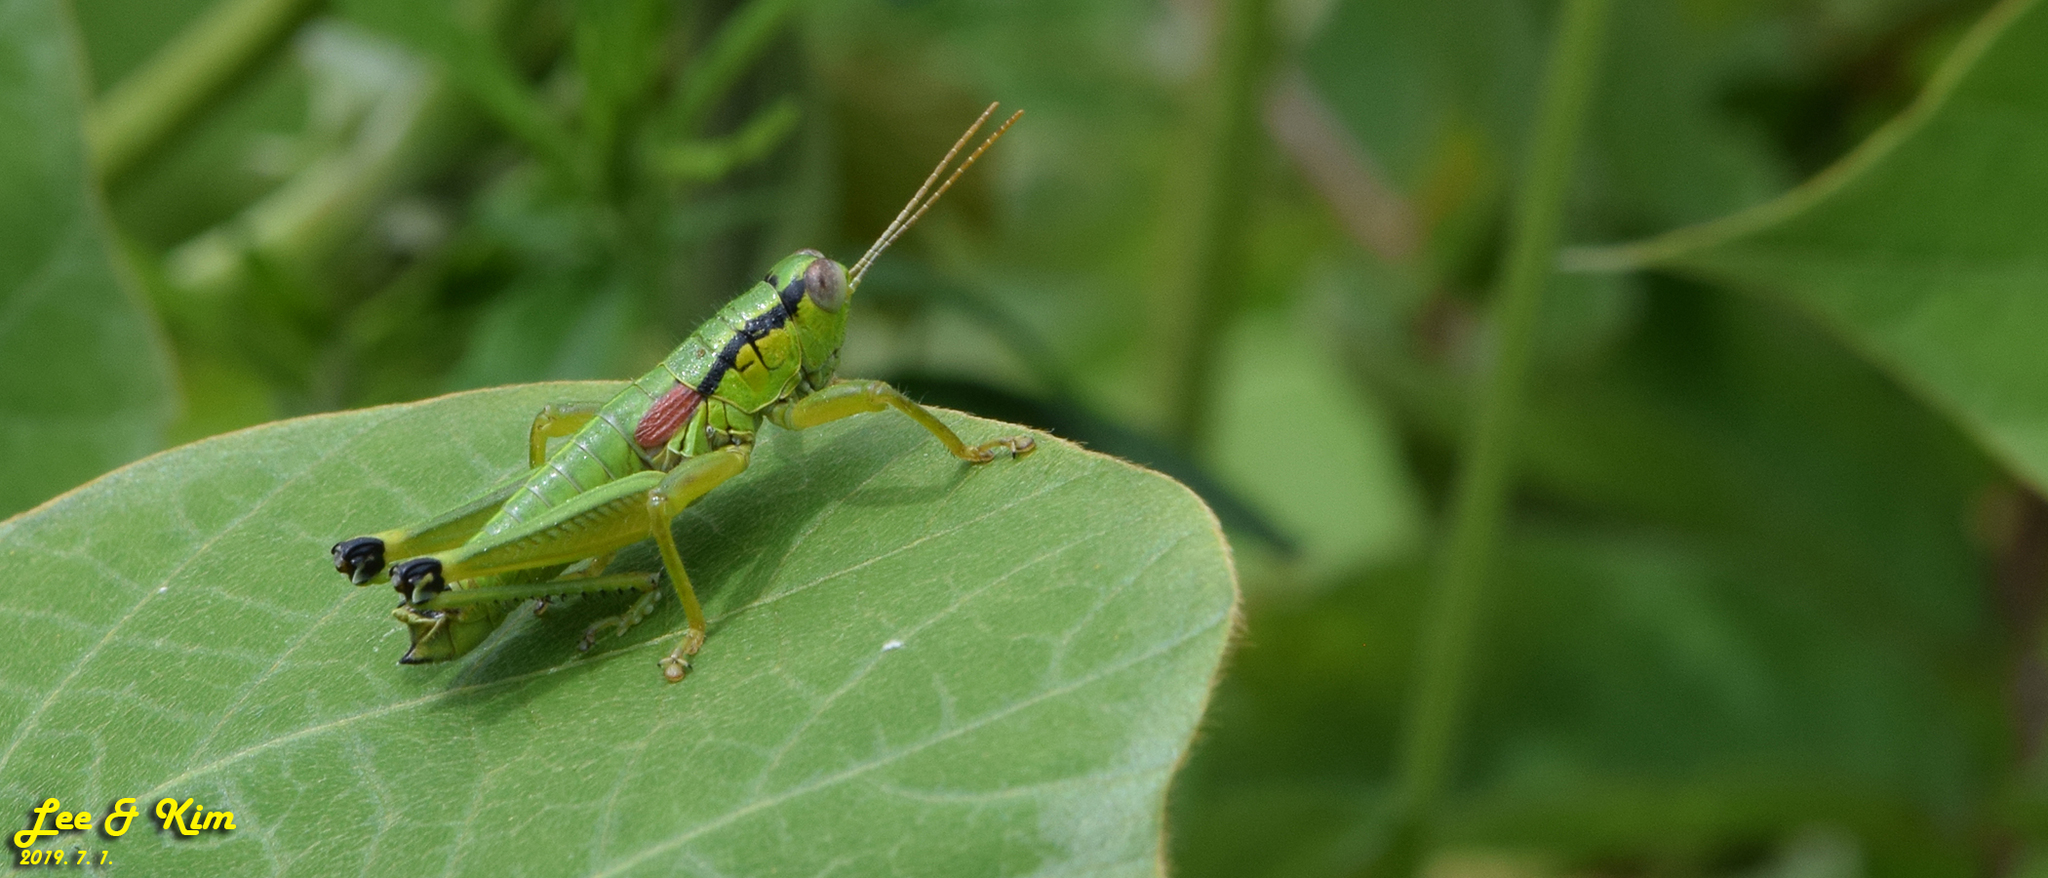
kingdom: Animalia
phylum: Arthropoda
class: Insecta
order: Orthoptera
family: Acrididae
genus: Anapodisma
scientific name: Anapodisma beybienkoi
